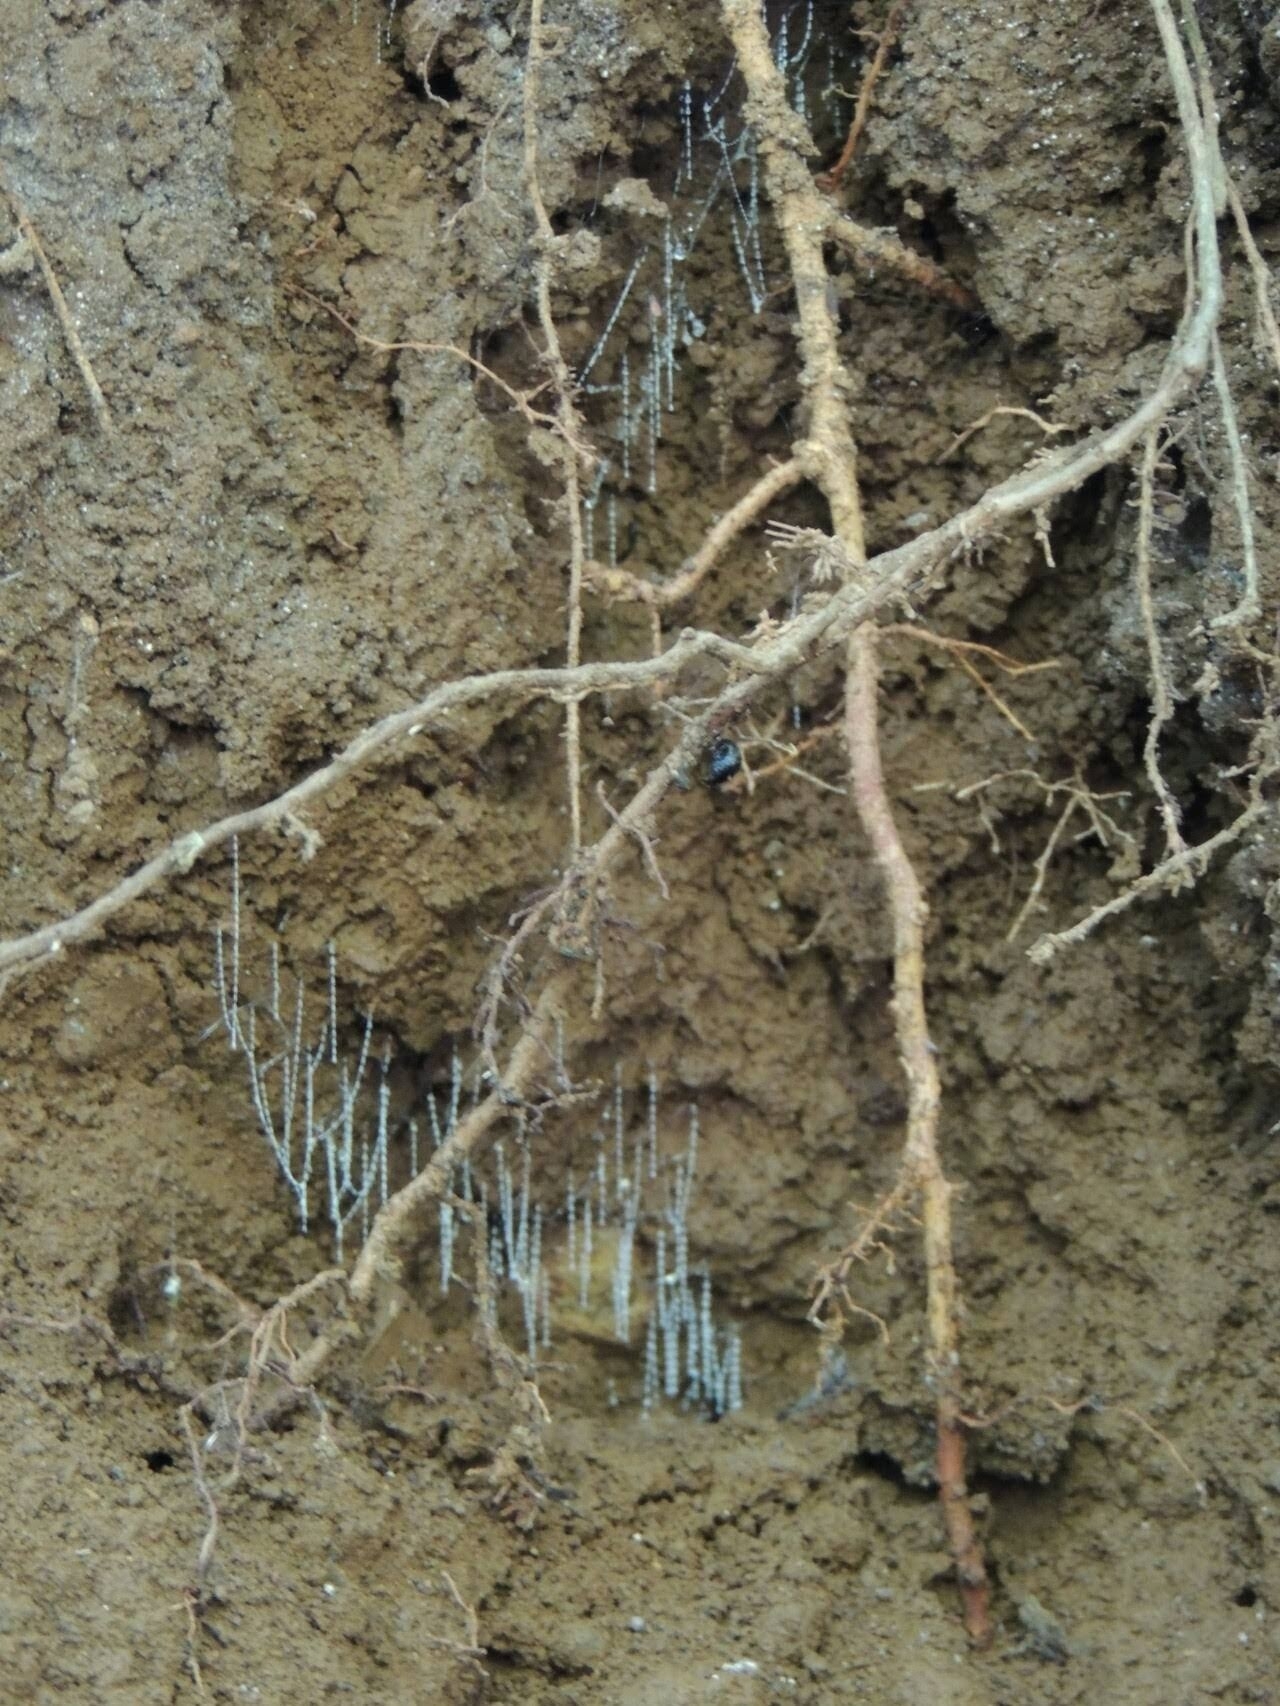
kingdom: Animalia
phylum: Arthropoda
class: Insecta
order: Diptera
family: Keroplatidae
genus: Arachnocampa
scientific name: Arachnocampa flava
